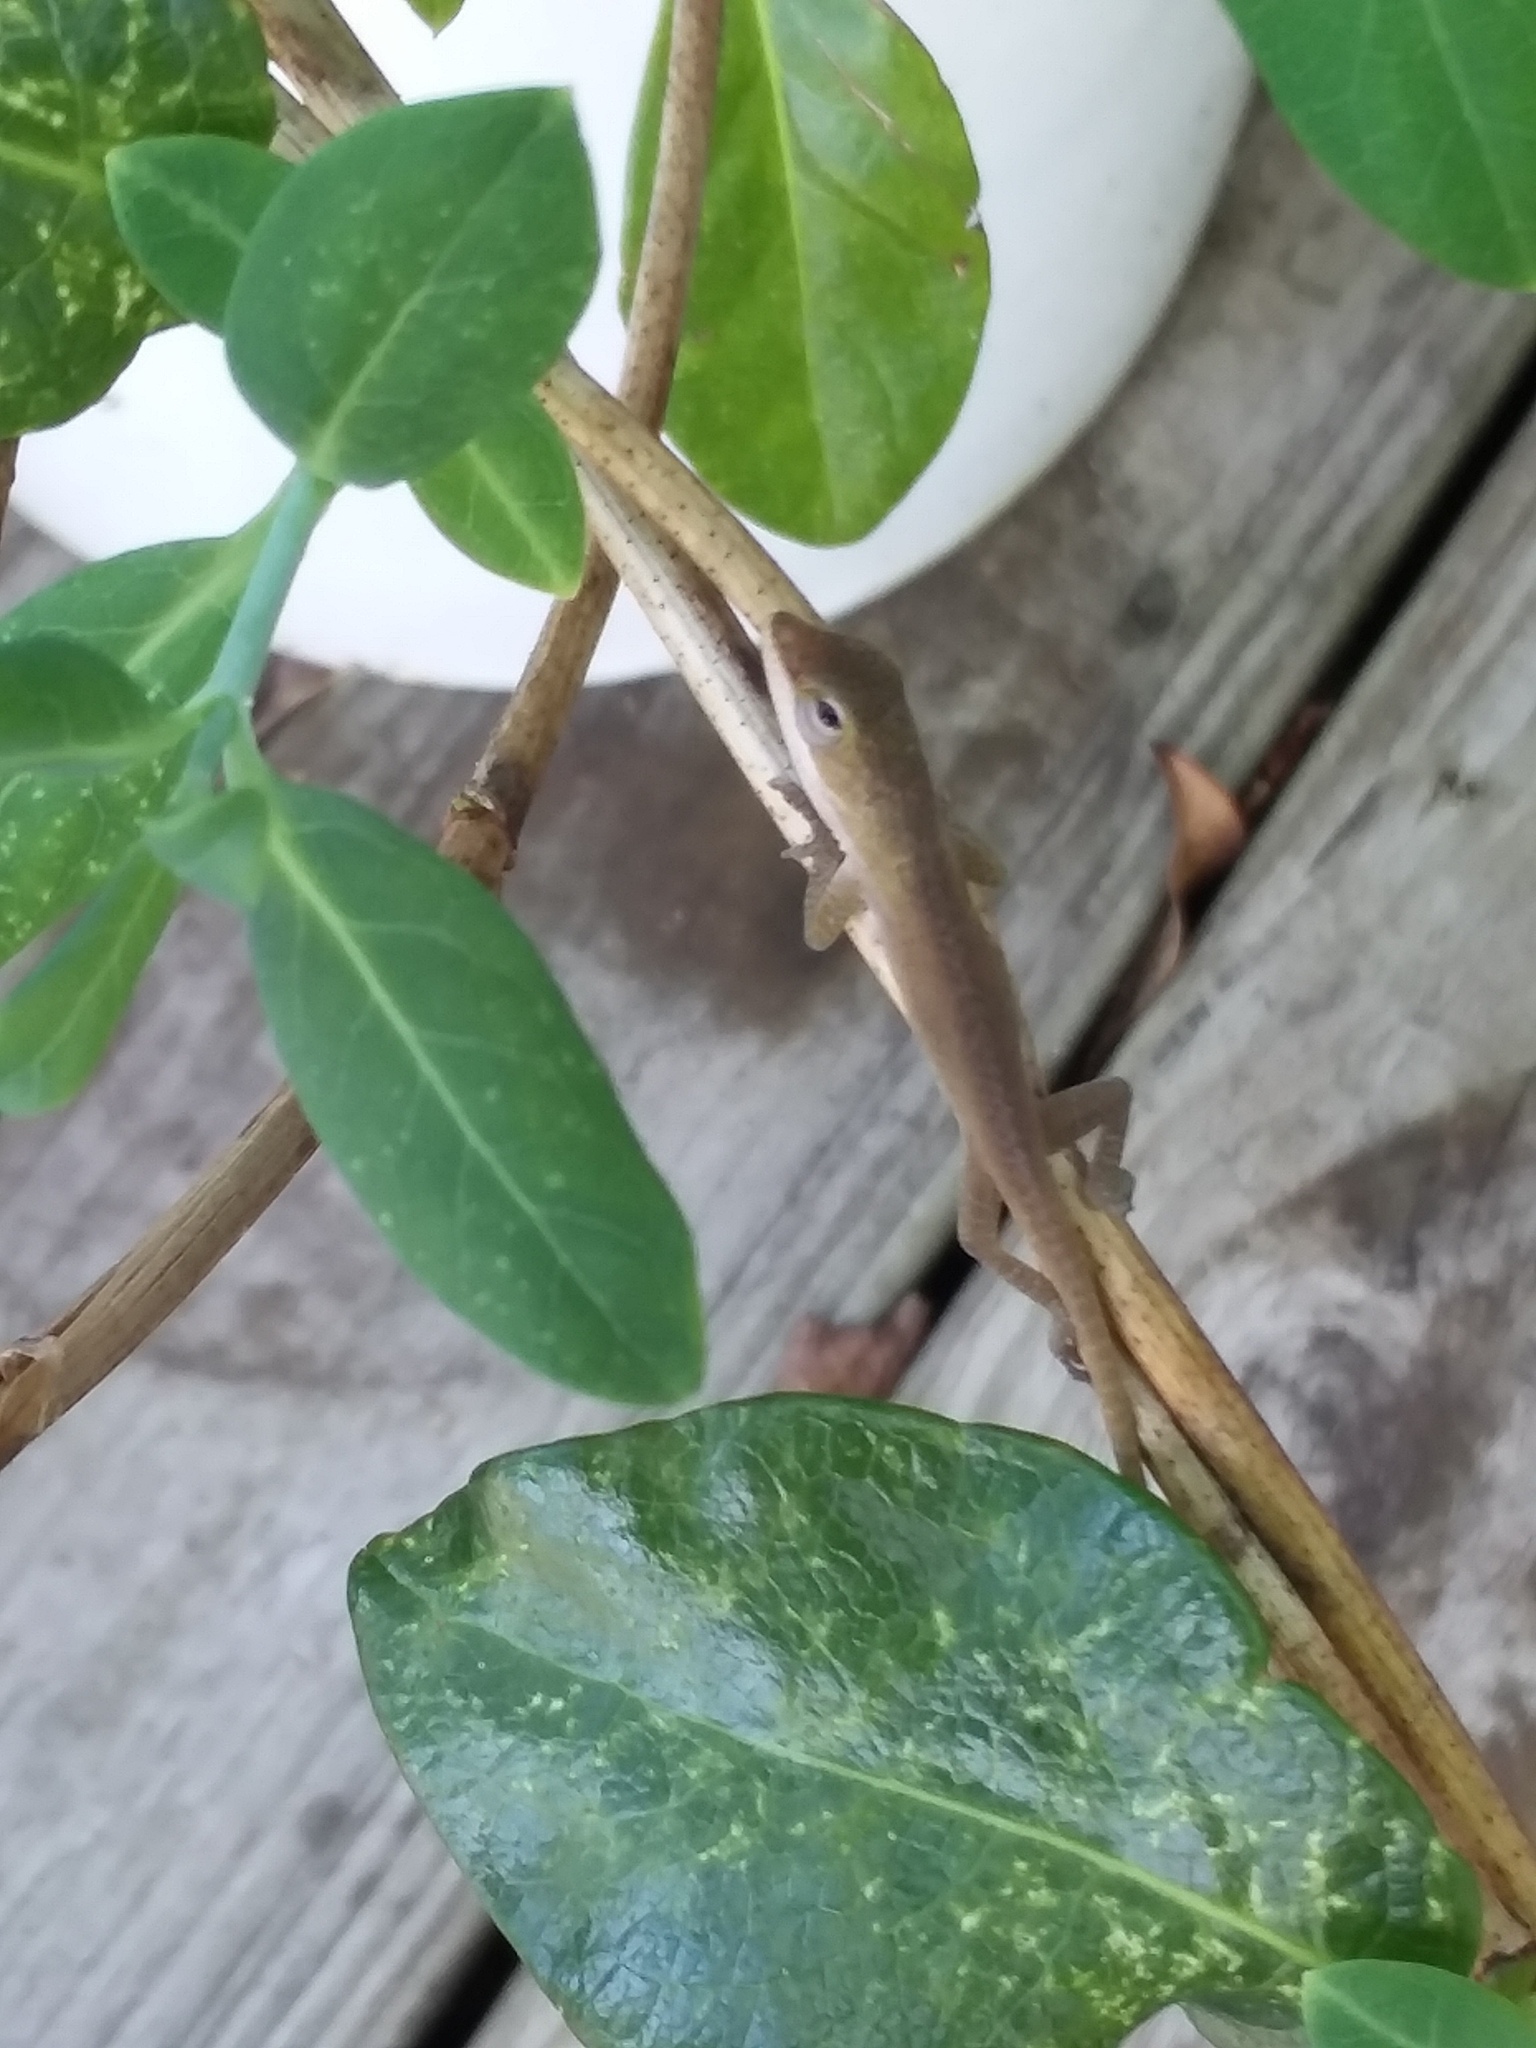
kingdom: Animalia
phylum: Chordata
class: Squamata
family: Dactyloidae
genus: Anolis
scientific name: Anolis carolinensis
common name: Green anole
